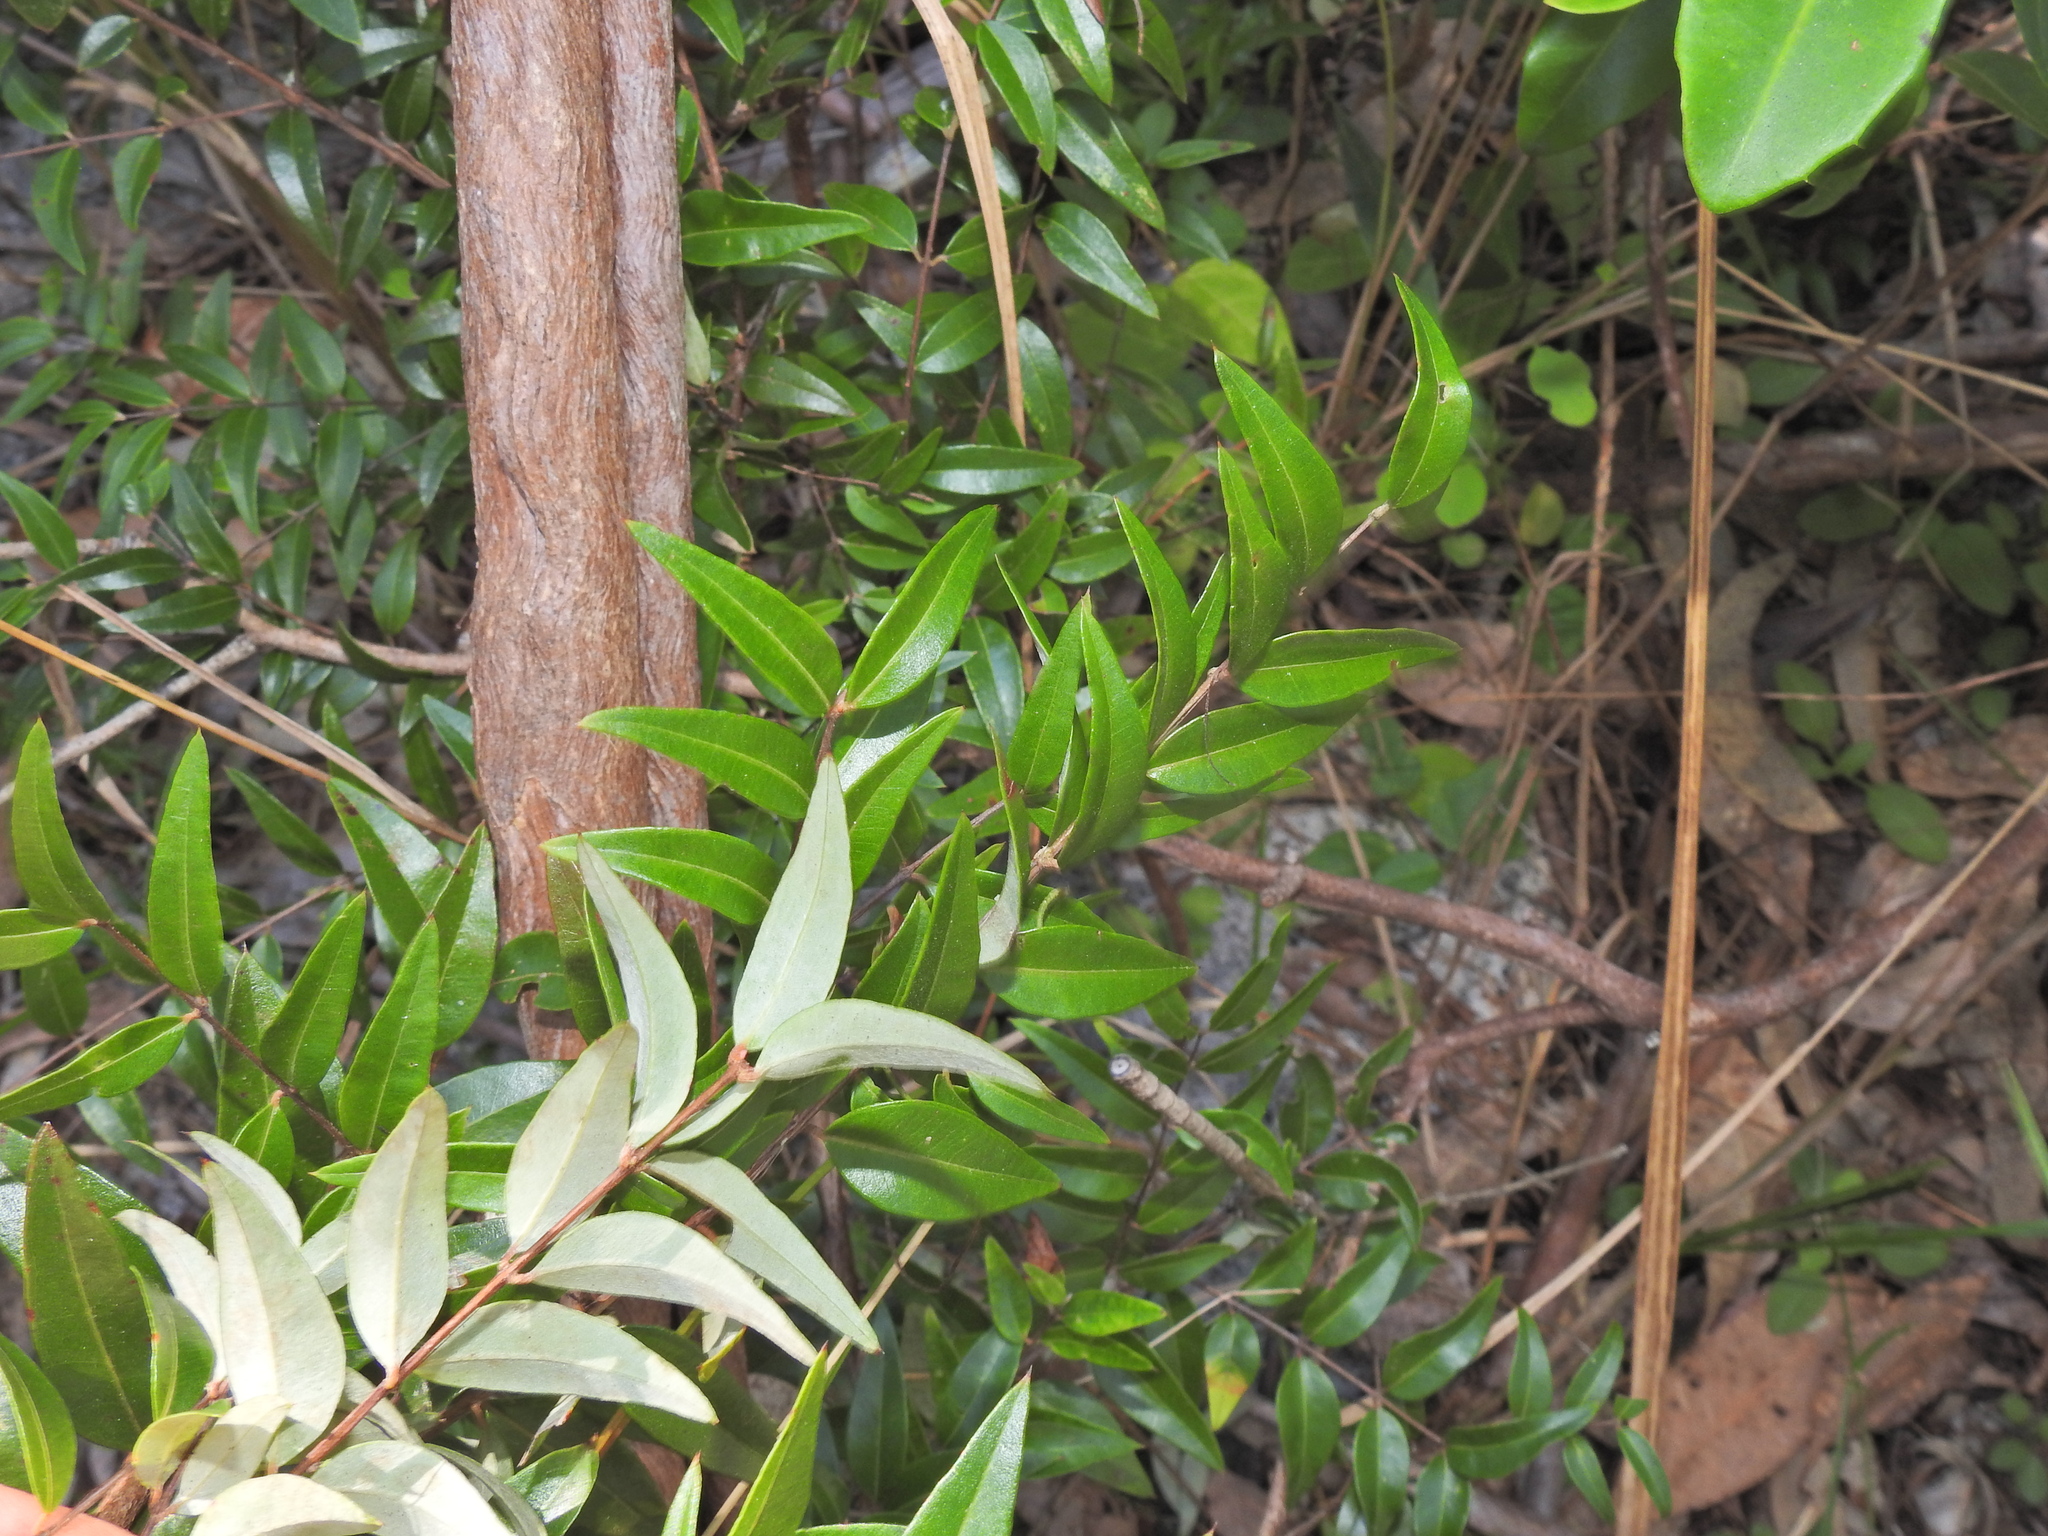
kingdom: Plantae
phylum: Tracheophyta
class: Magnoliopsida
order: Myrtales
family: Myrtaceae
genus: Austromyrtus
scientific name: Austromyrtus dulcis
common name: Migden-berry
